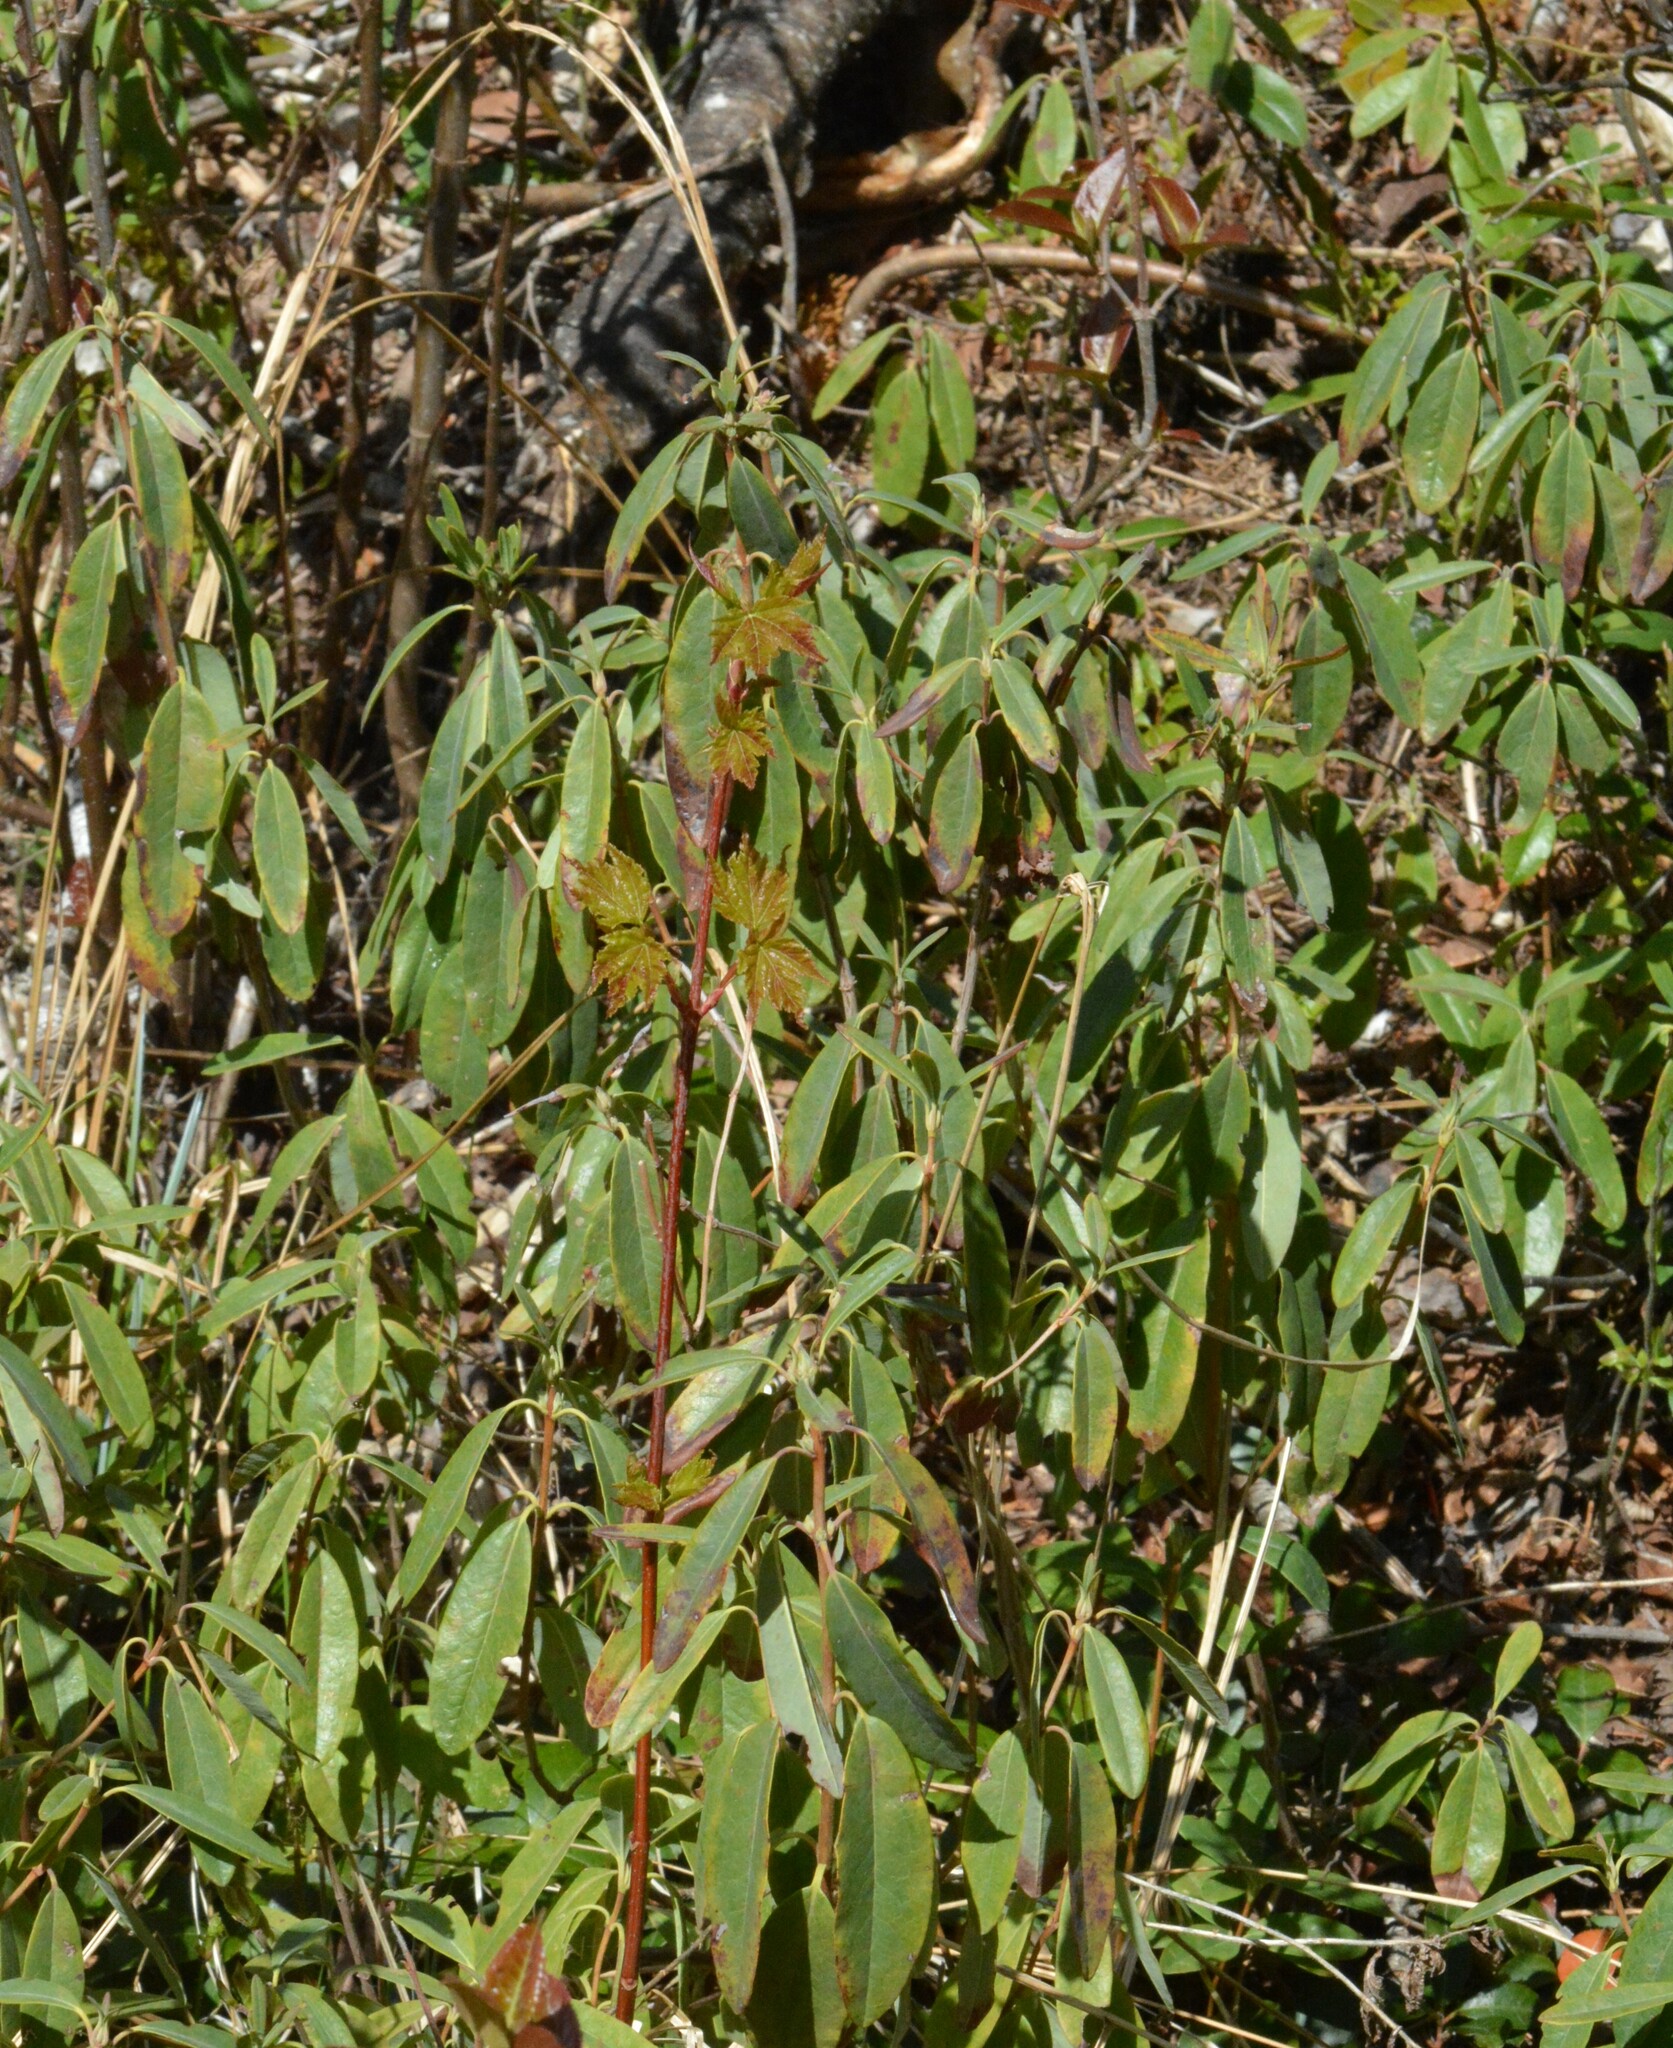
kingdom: Plantae
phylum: Tracheophyta
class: Magnoliopsida
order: Ericales
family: Ericaceae
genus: Kalmia
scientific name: Kalmia angustifolia
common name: Sheep-laurel
